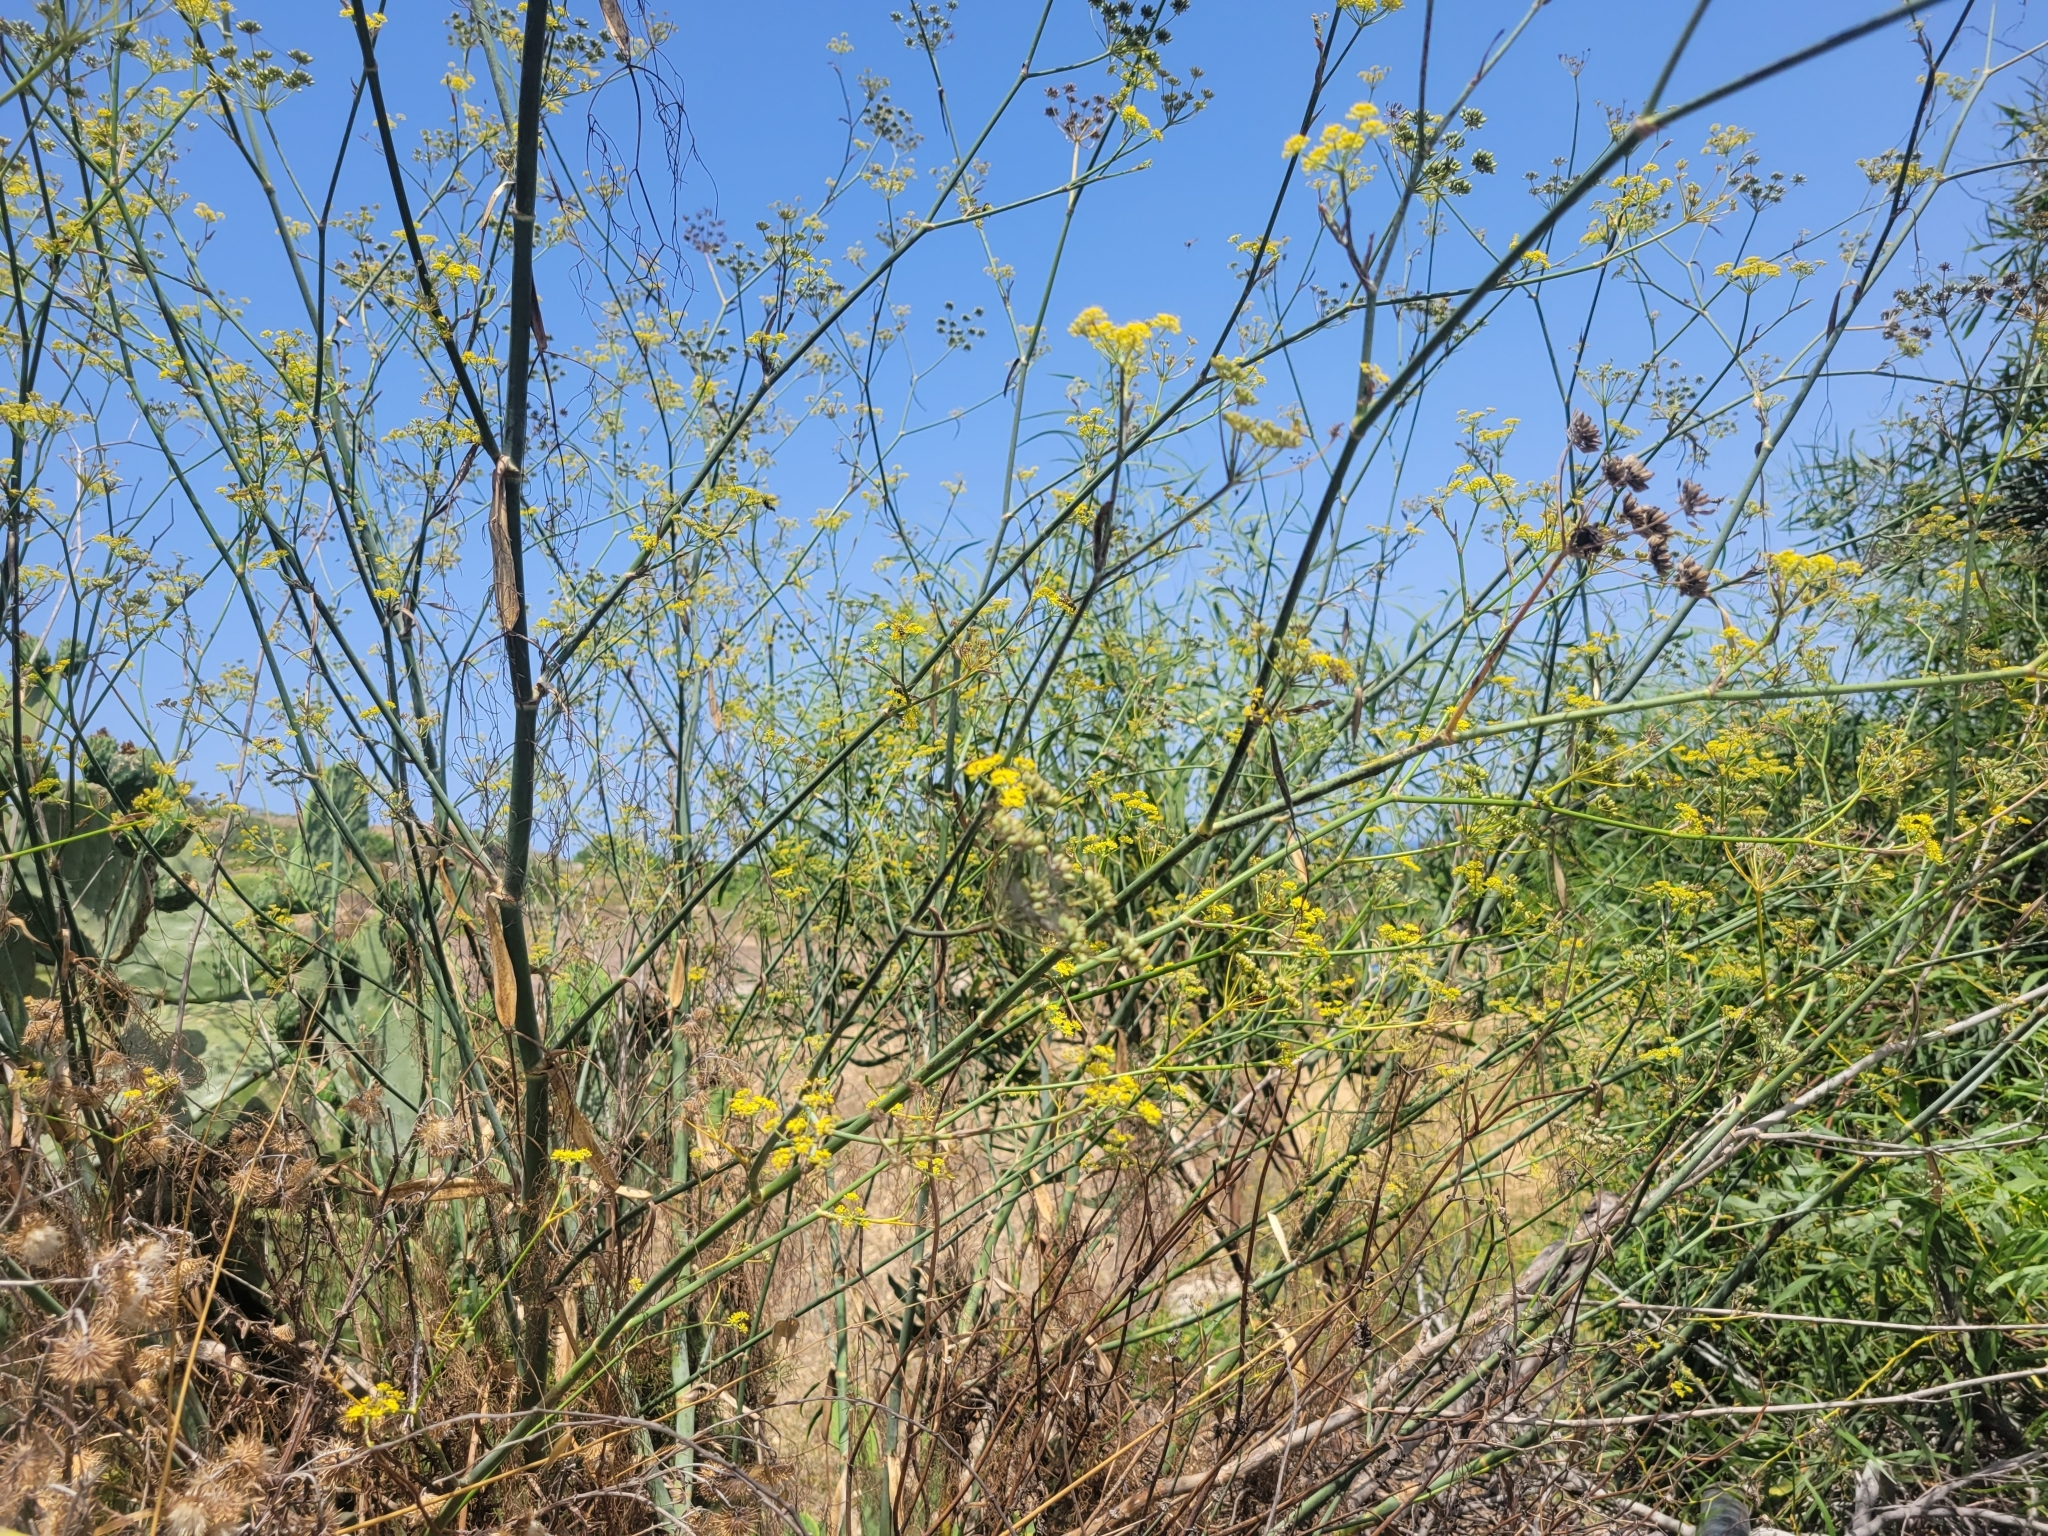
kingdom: Plantae
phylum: Tracheophyta
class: Magnoliopsida
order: Apiales
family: Apiaceae
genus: Foeniculum
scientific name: Foeniculum vulgare
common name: Fennel
